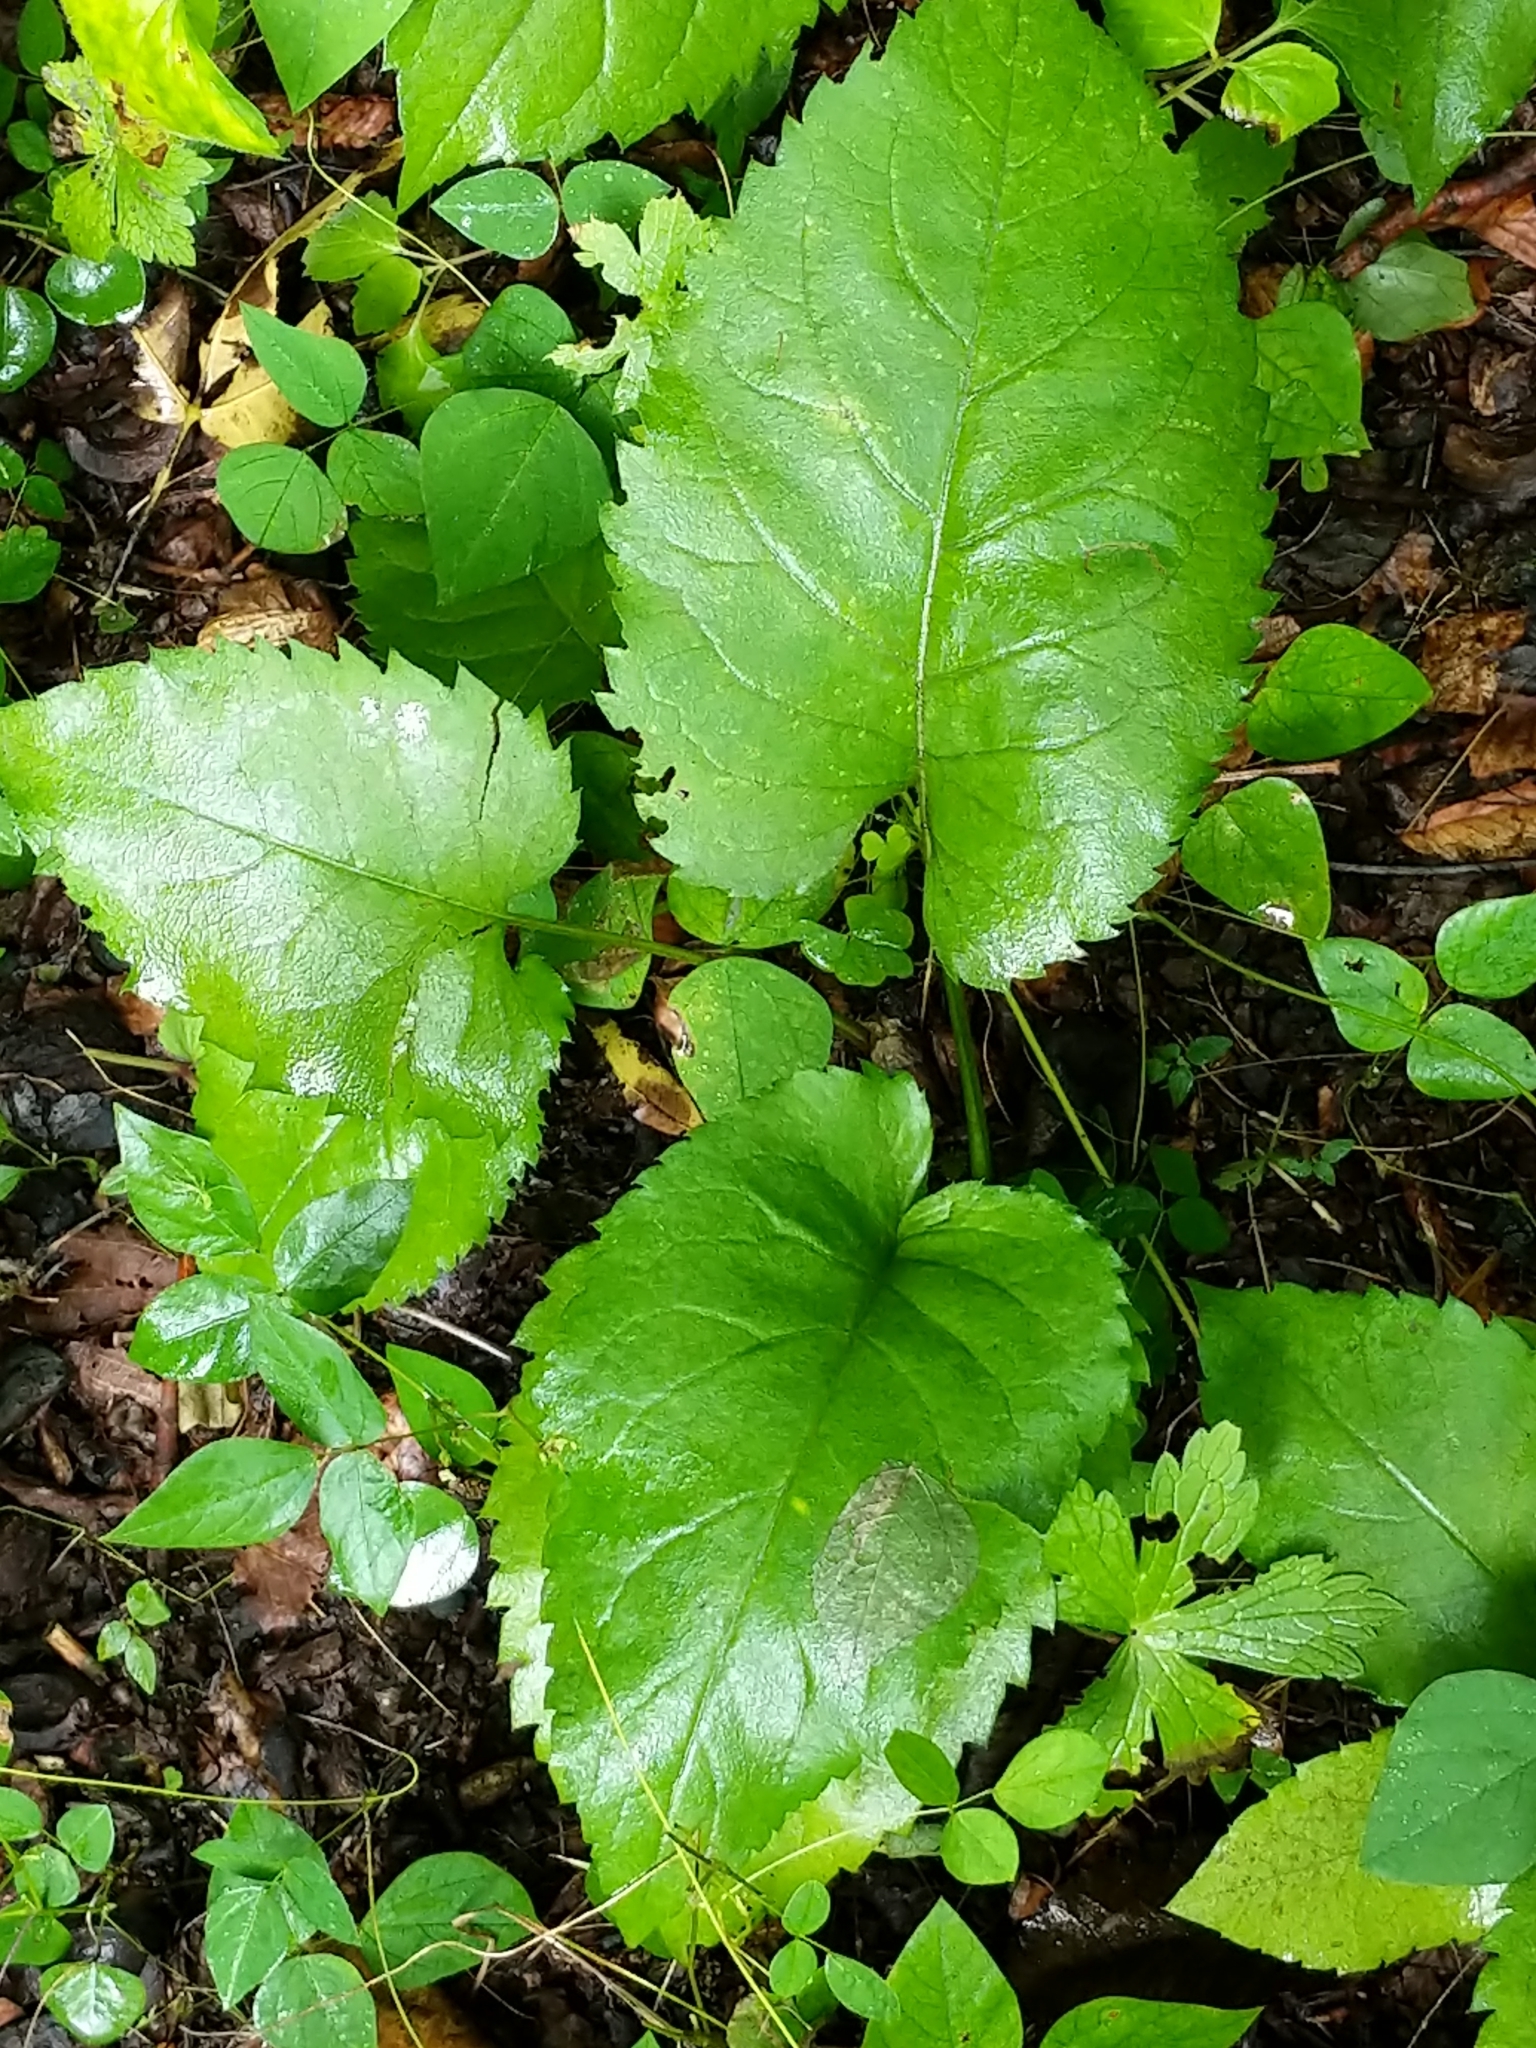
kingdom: Plantae
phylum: Tracheophyta
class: Magnoliopsida
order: Asterales
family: Asteraceae
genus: Eurybia
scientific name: Eurybia macrophylla
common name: Big-leaved aster
